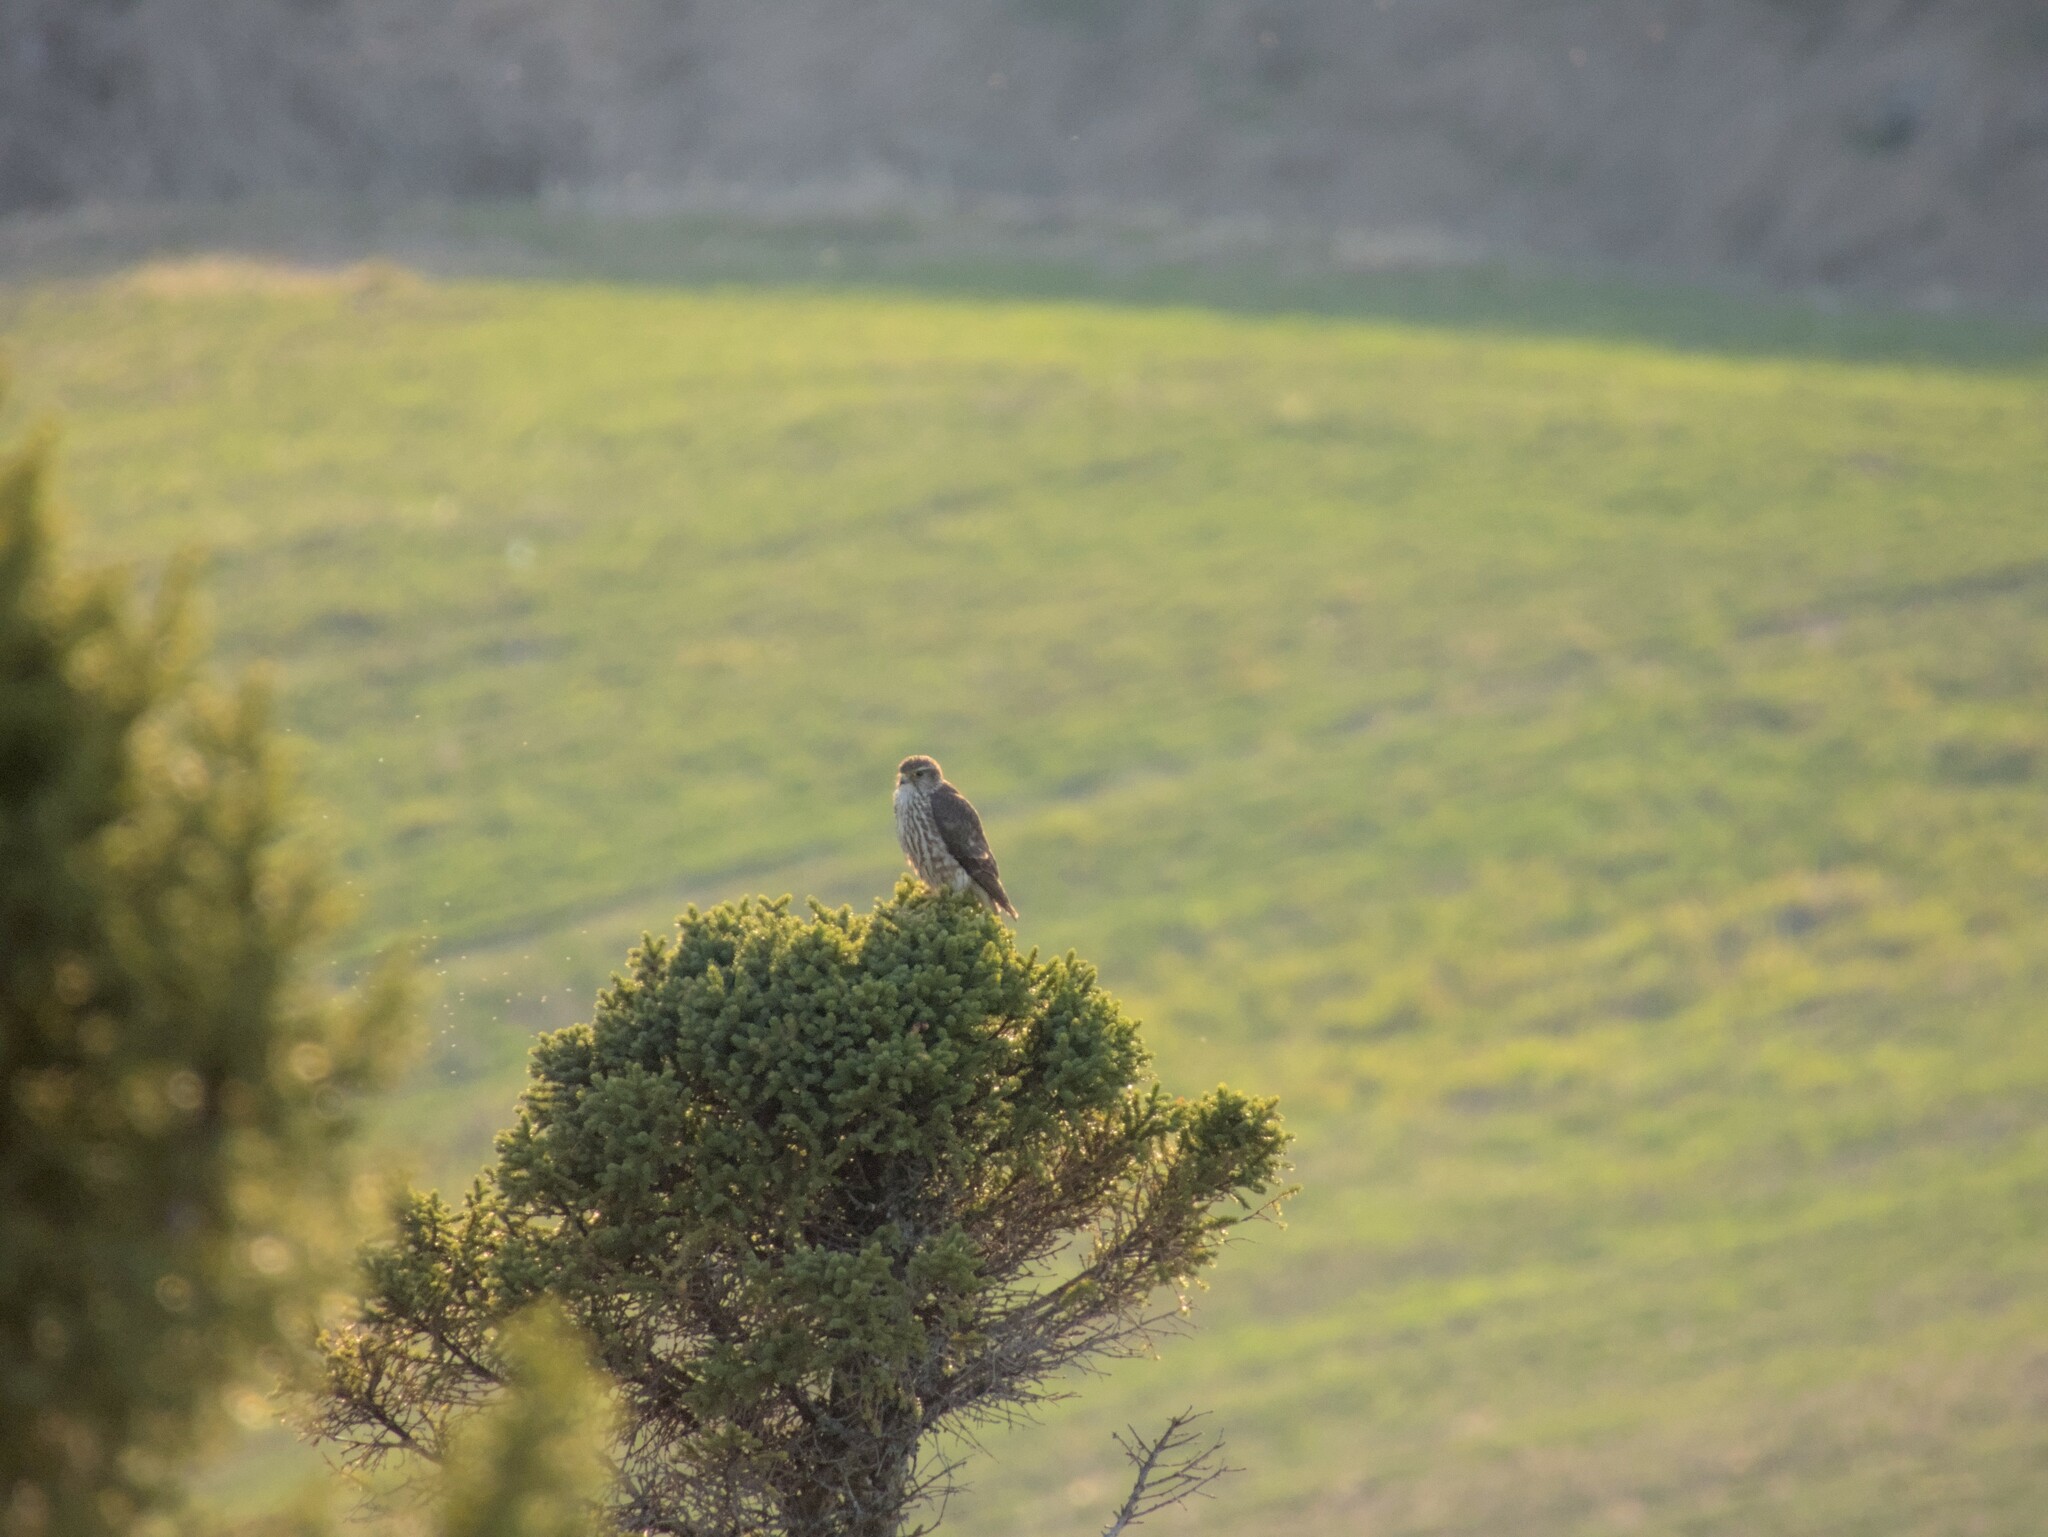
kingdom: Animalia
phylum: Chordata
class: Aves
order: Falconiformes
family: Falconidae
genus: Falco
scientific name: Falco columbarius
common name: Merlin
